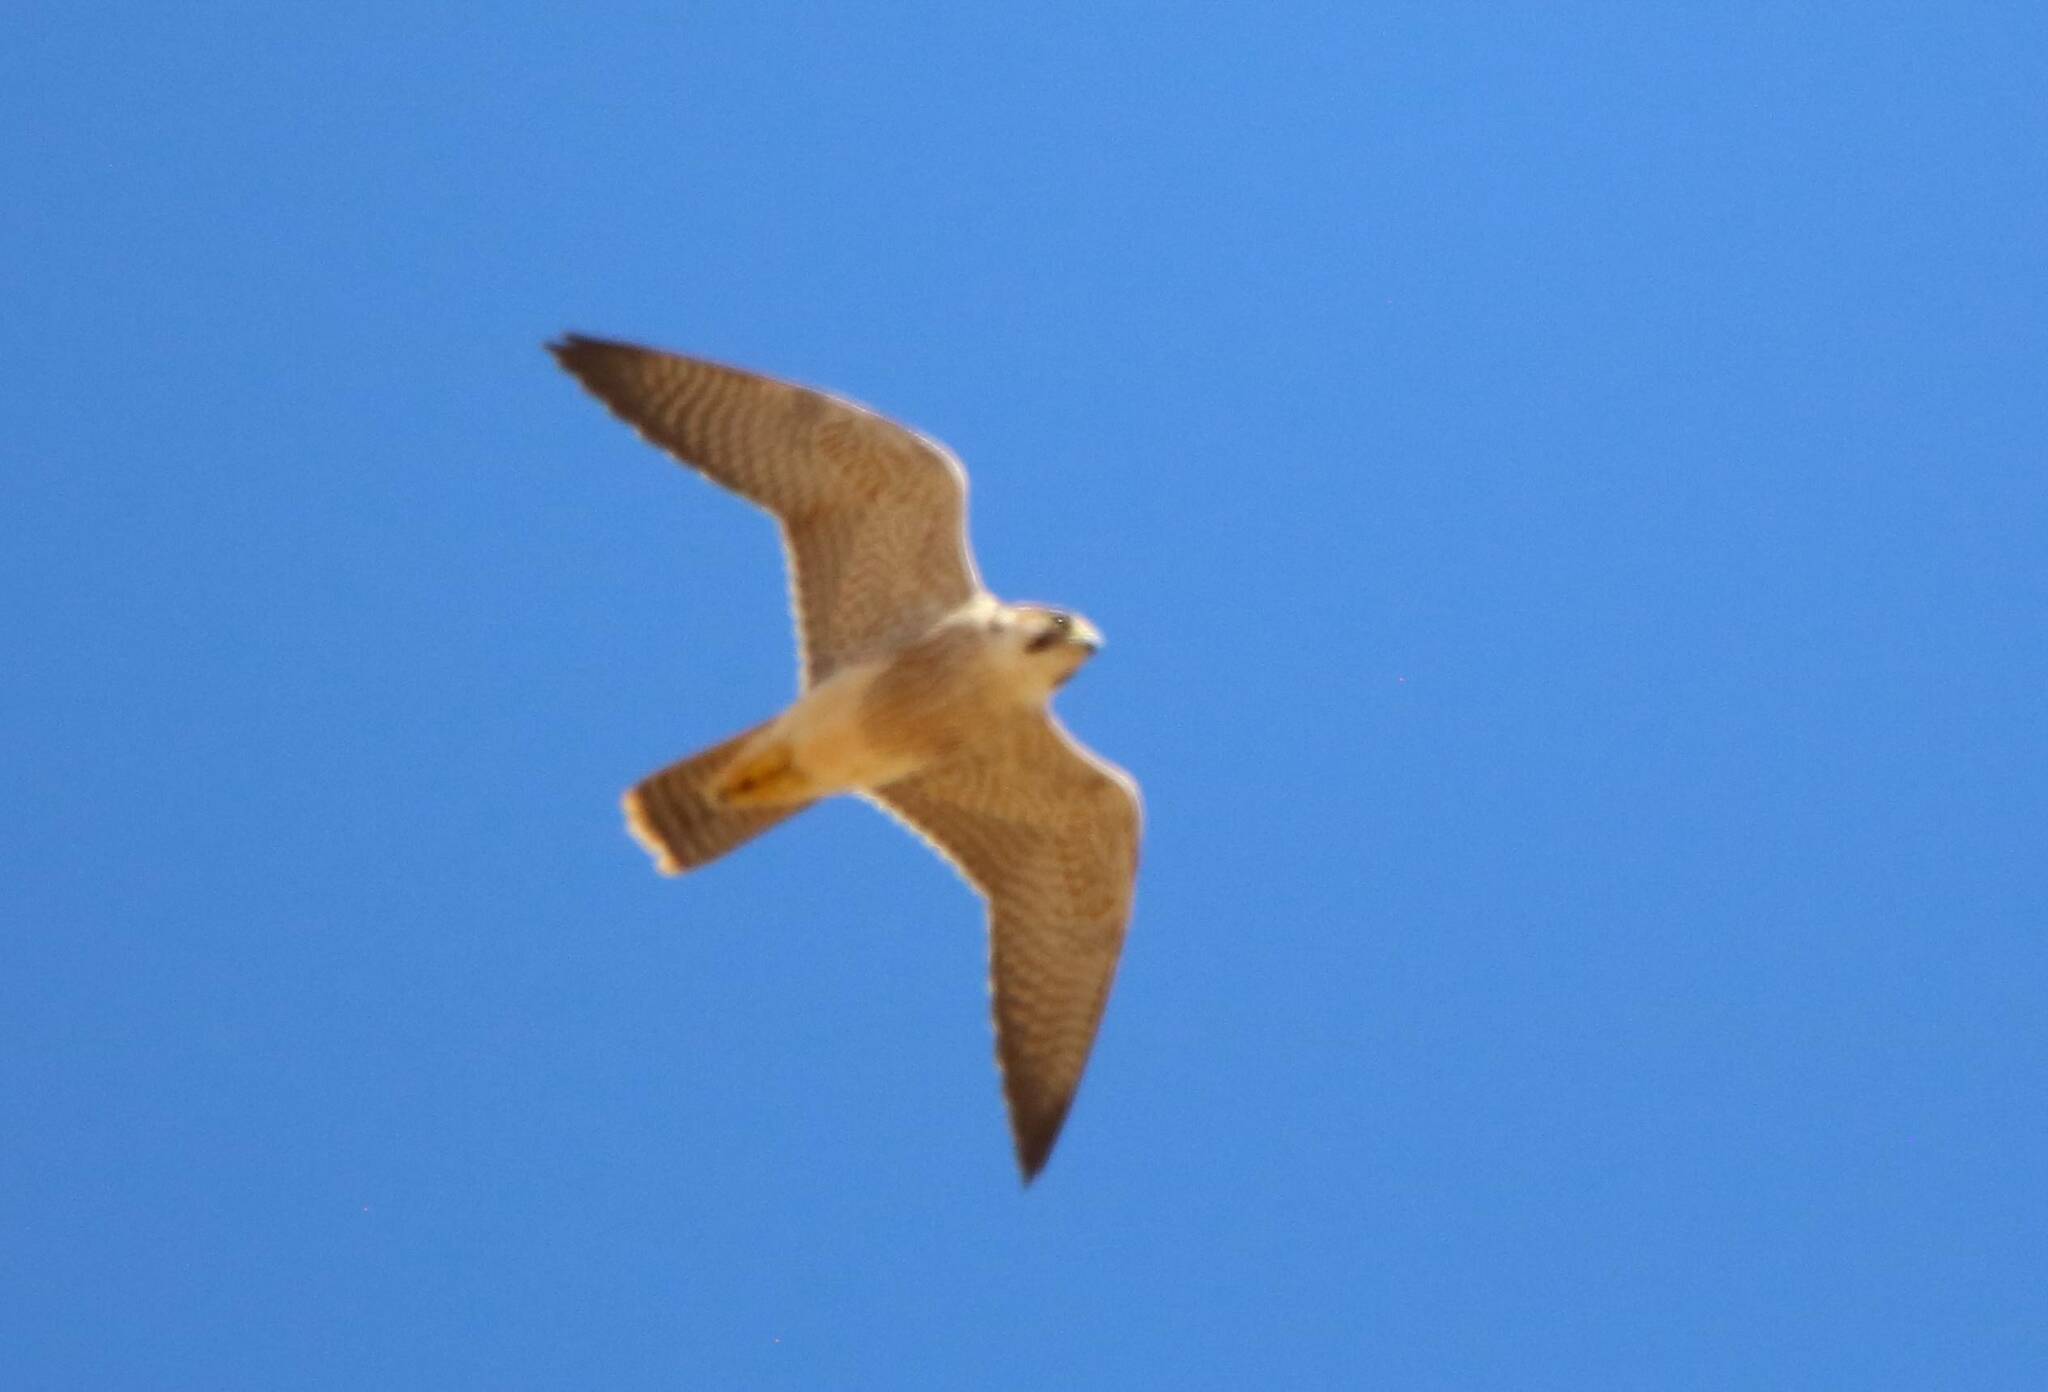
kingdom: Animalia
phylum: Chordata
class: Aves
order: Falconiformes
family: Falconidae
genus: Falco
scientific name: Falco peregrinus
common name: Peregrine falcon
